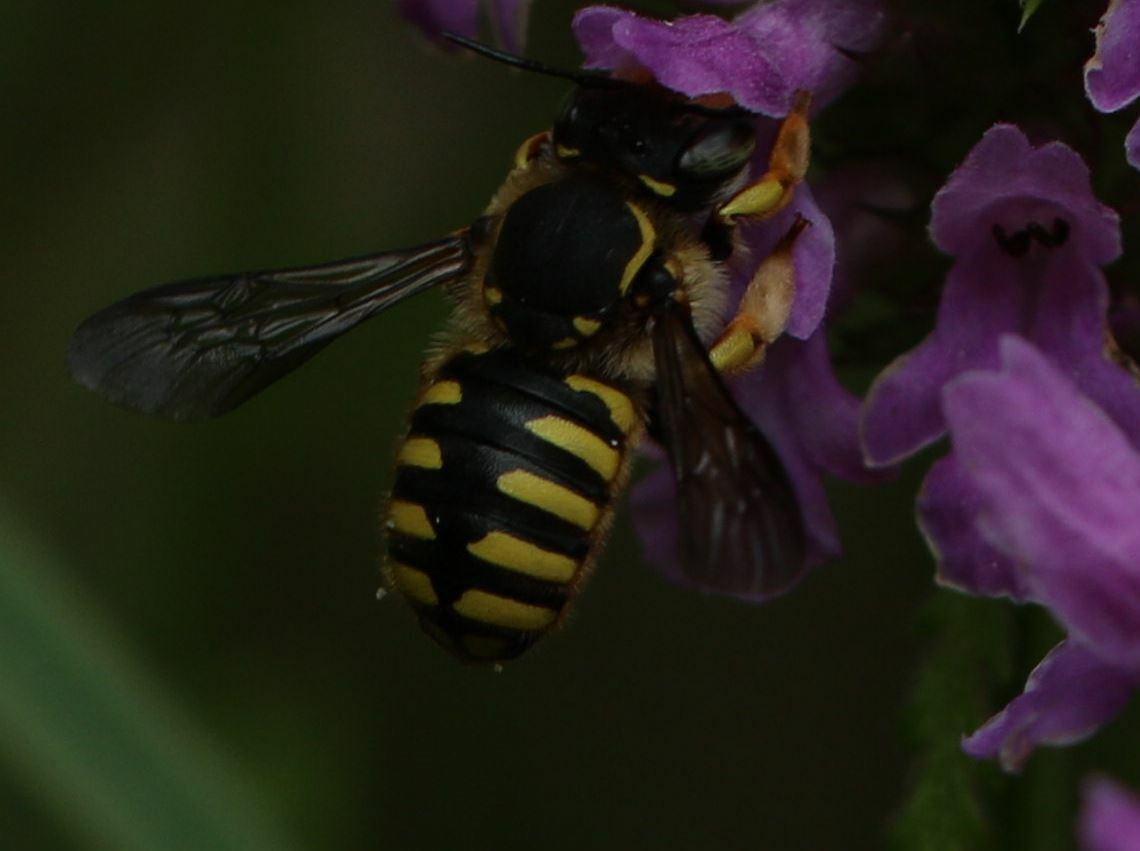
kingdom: Animalia
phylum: Arthropoda
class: Insecta
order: Hymenoptera
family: Megachilidae
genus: Anthidium
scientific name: Anthidium manicatum
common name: Wool carder bee
